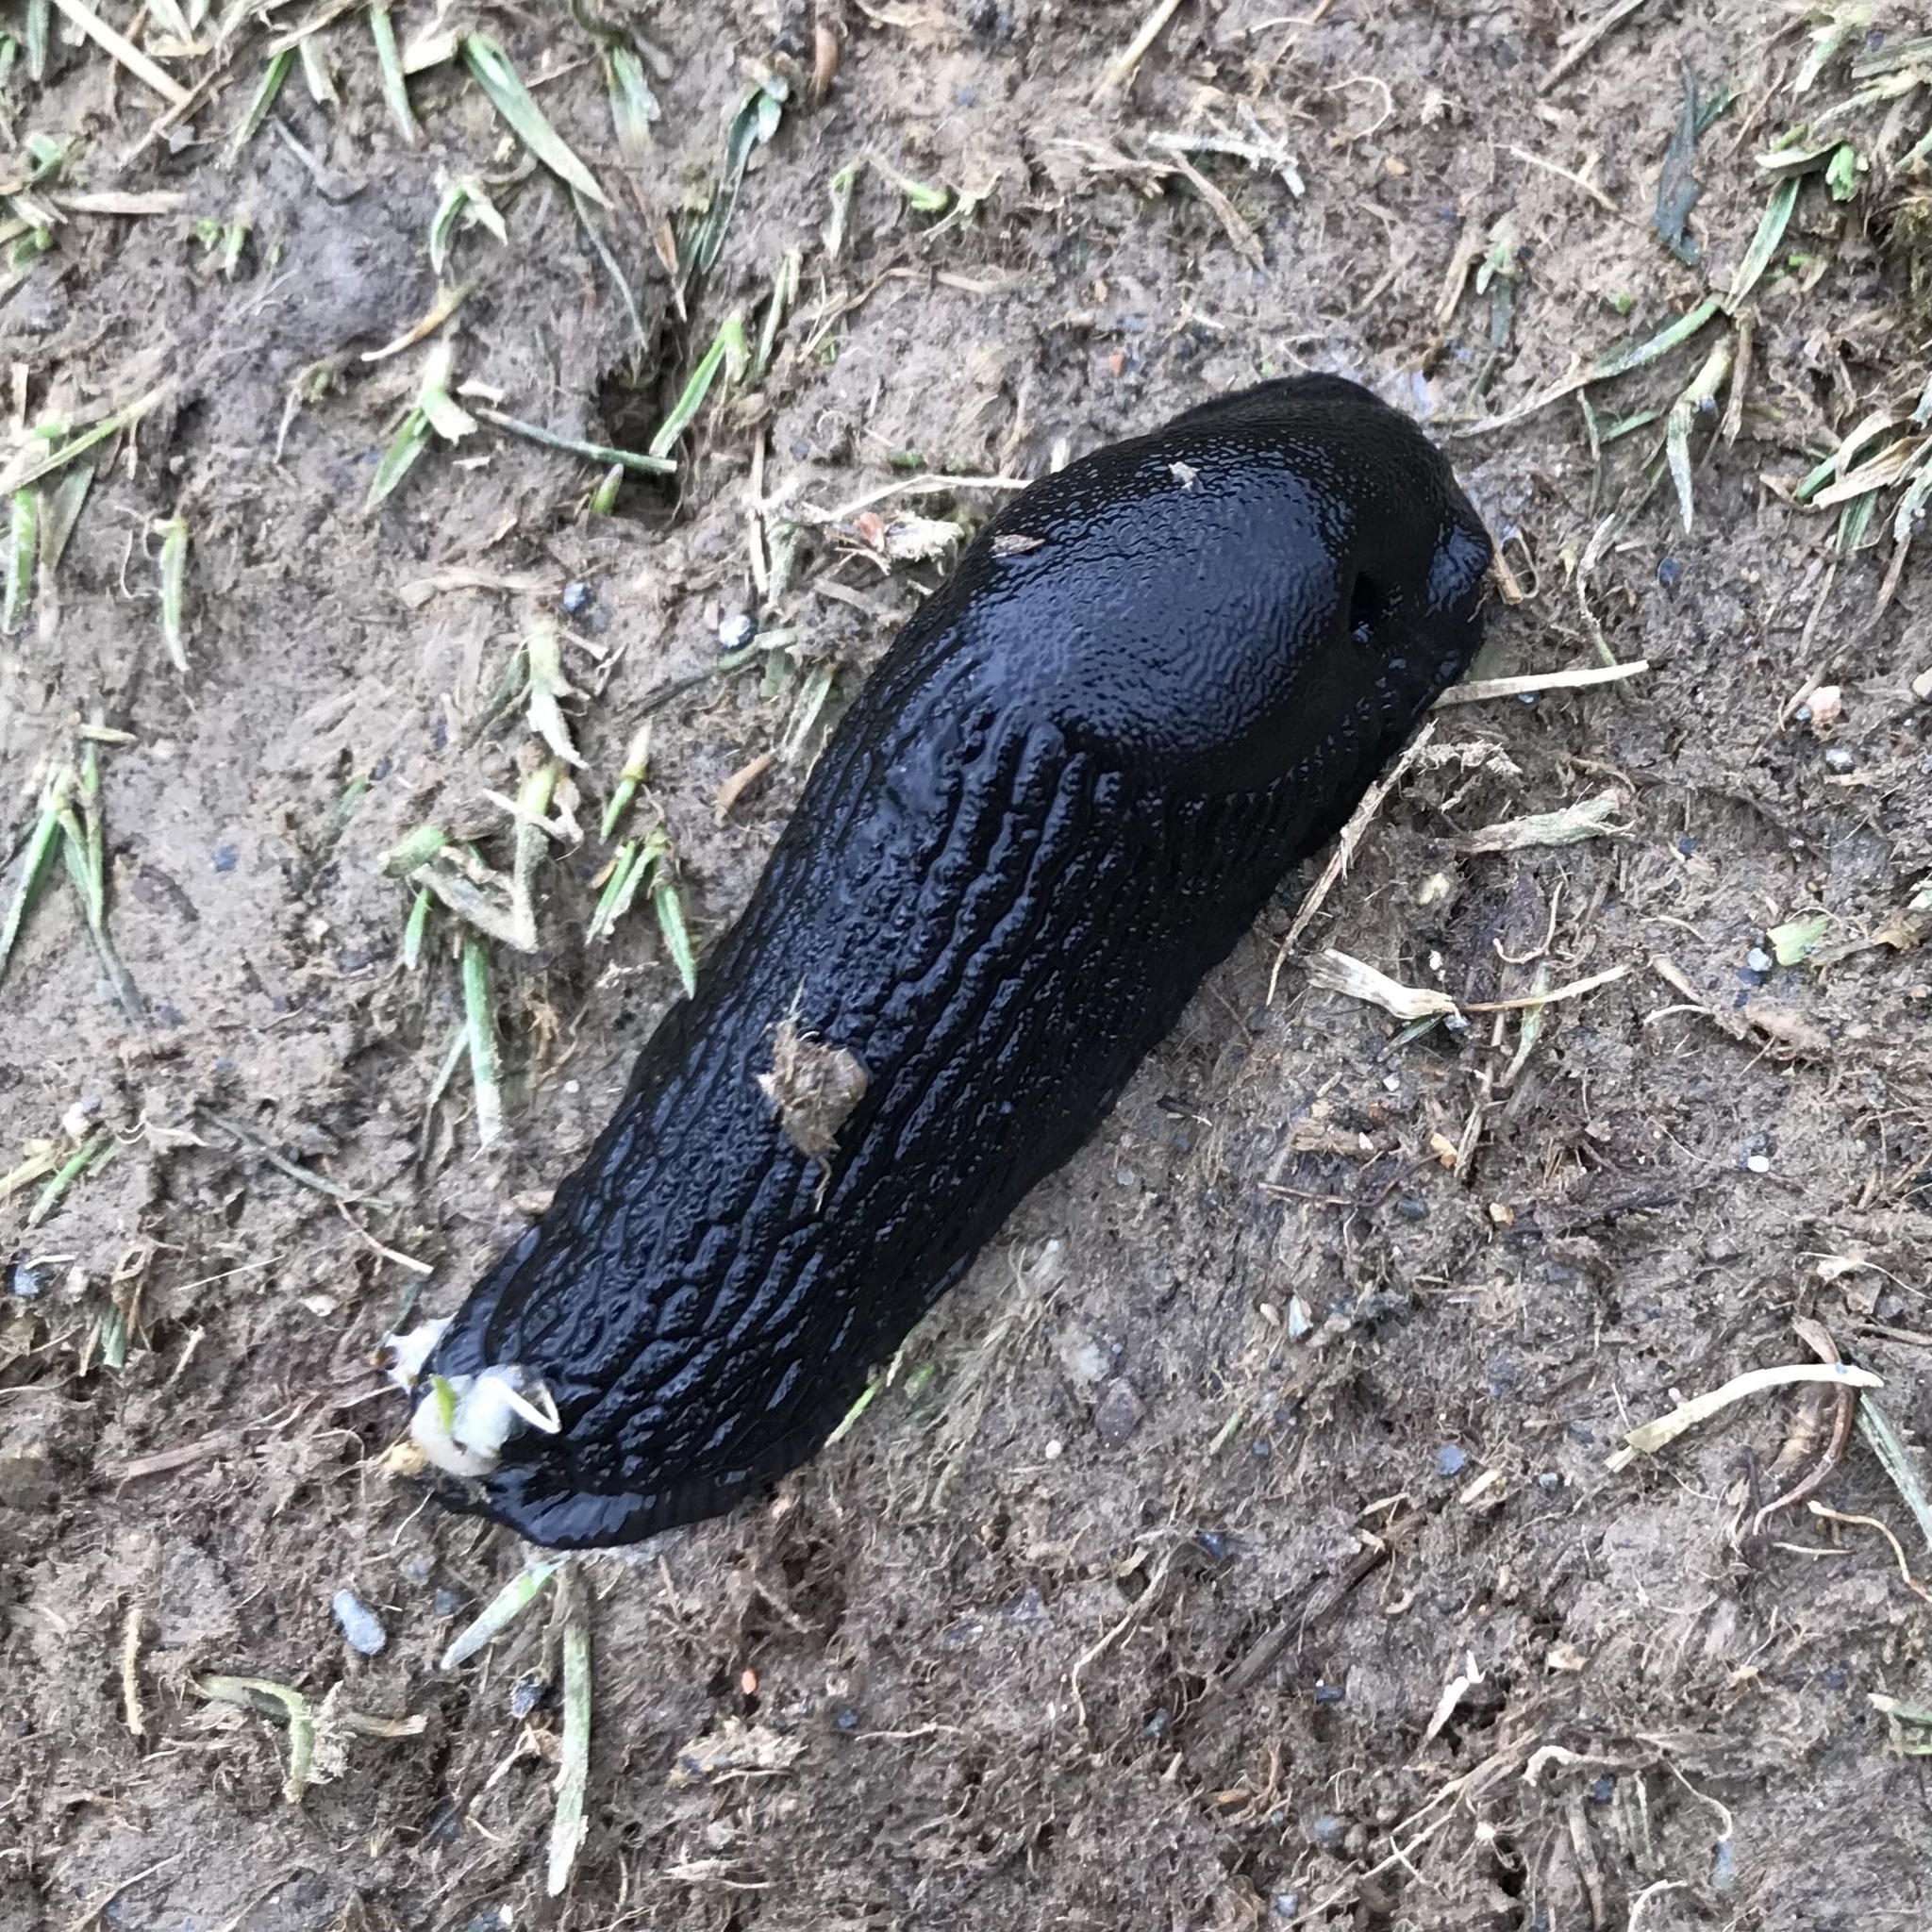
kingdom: Animalia
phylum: Mollusca
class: Gastropoda
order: Stylommatophora
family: Arionidae
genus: Arion
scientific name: Arion ater
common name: Black arion
